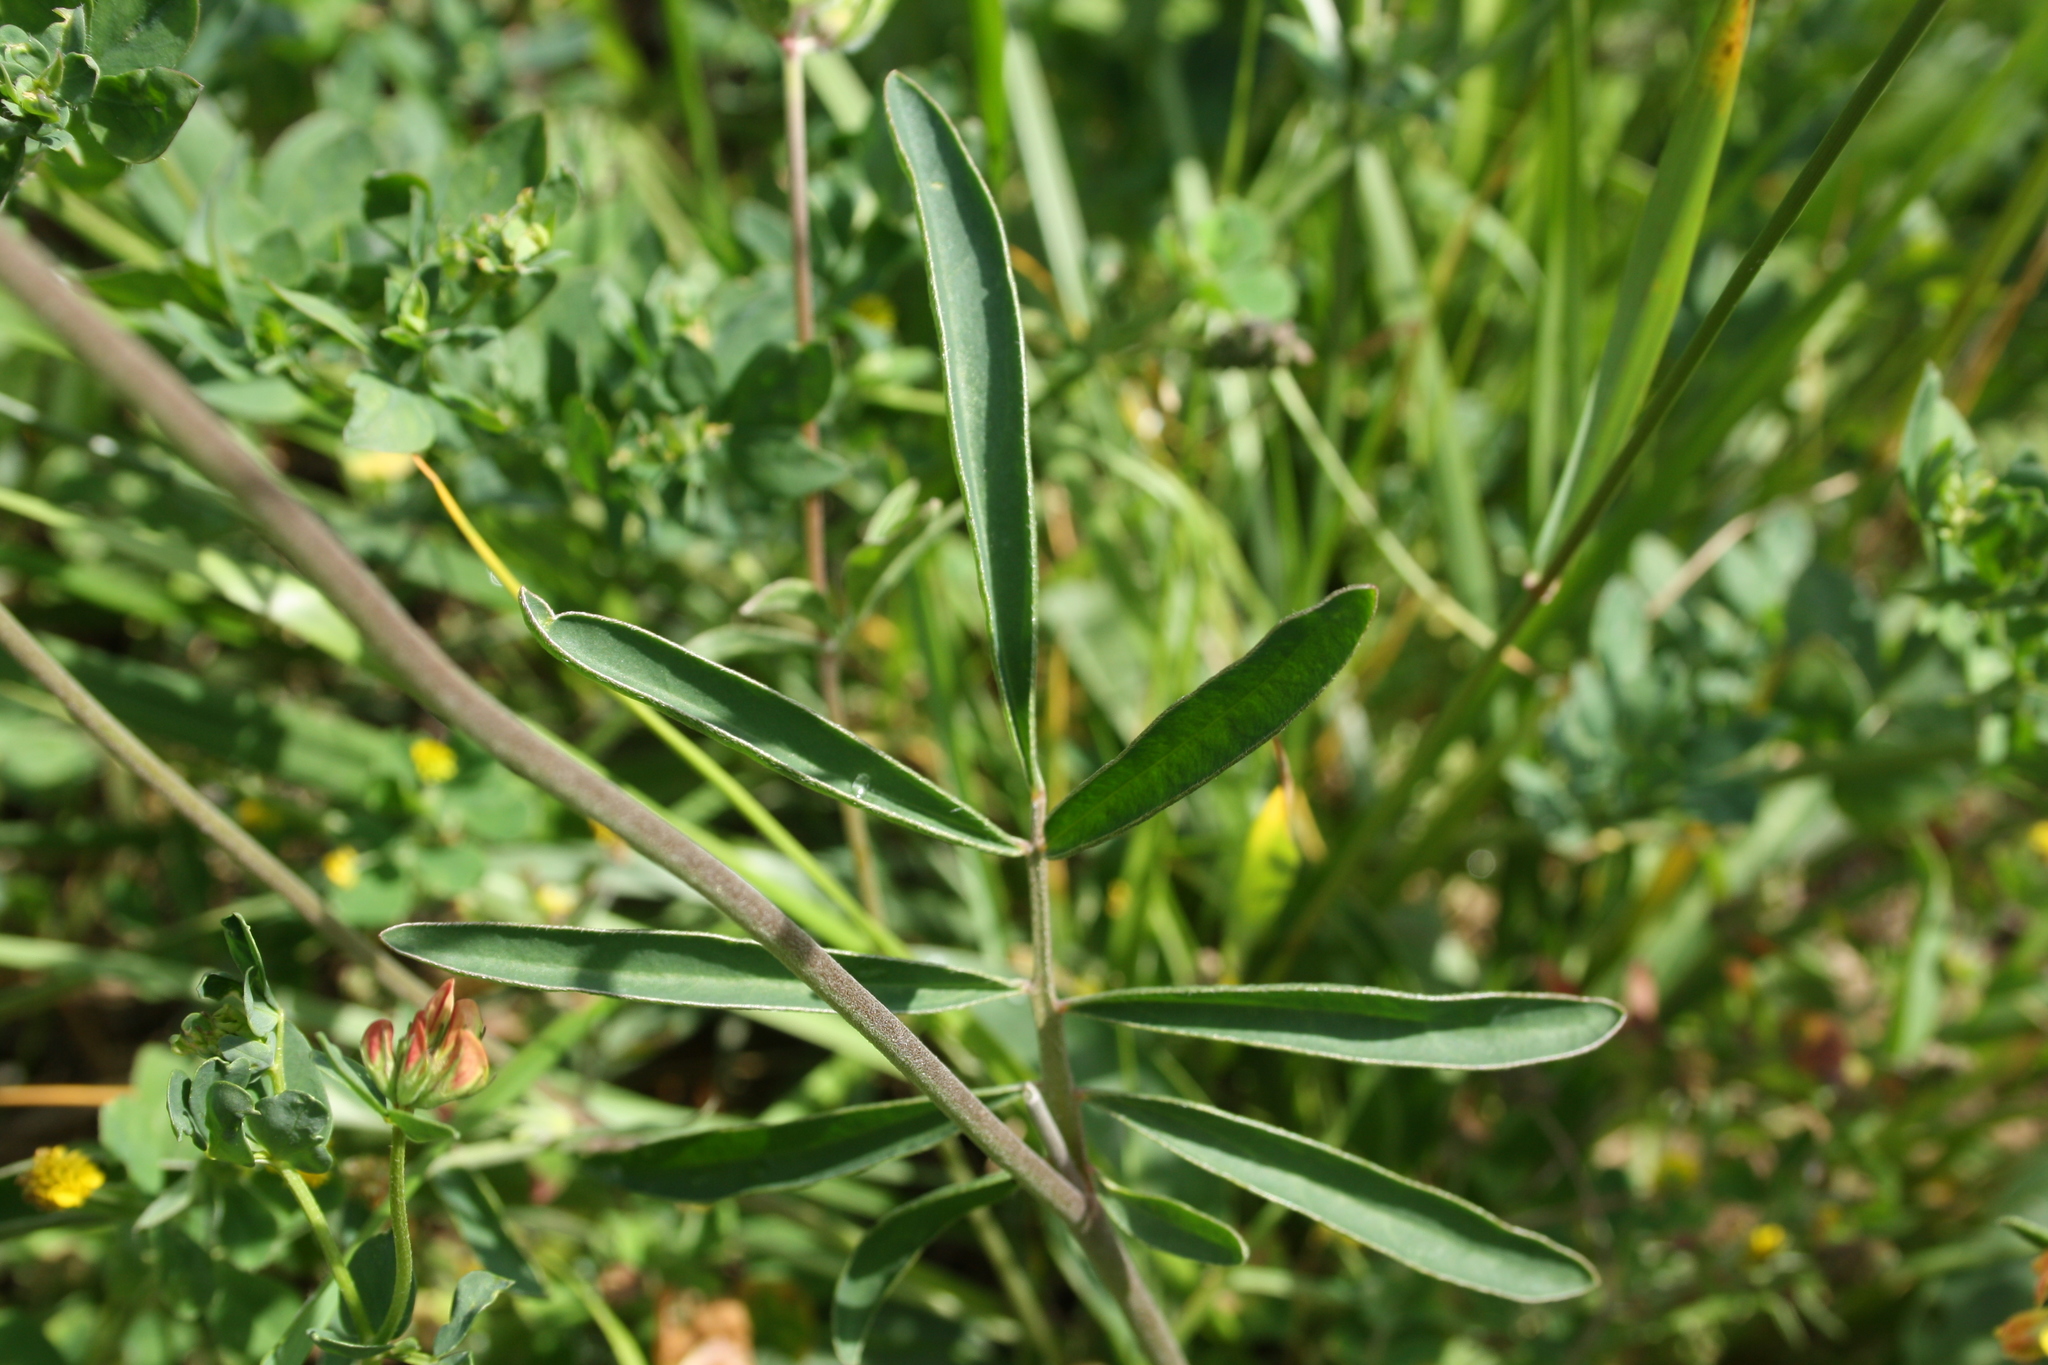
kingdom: Plantae
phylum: Tracheophyta
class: Magnoliopsida
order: Fabales
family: Fabaceae
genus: Anthyllis
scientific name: Anthyllis vulneraria
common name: Kidney vetch
